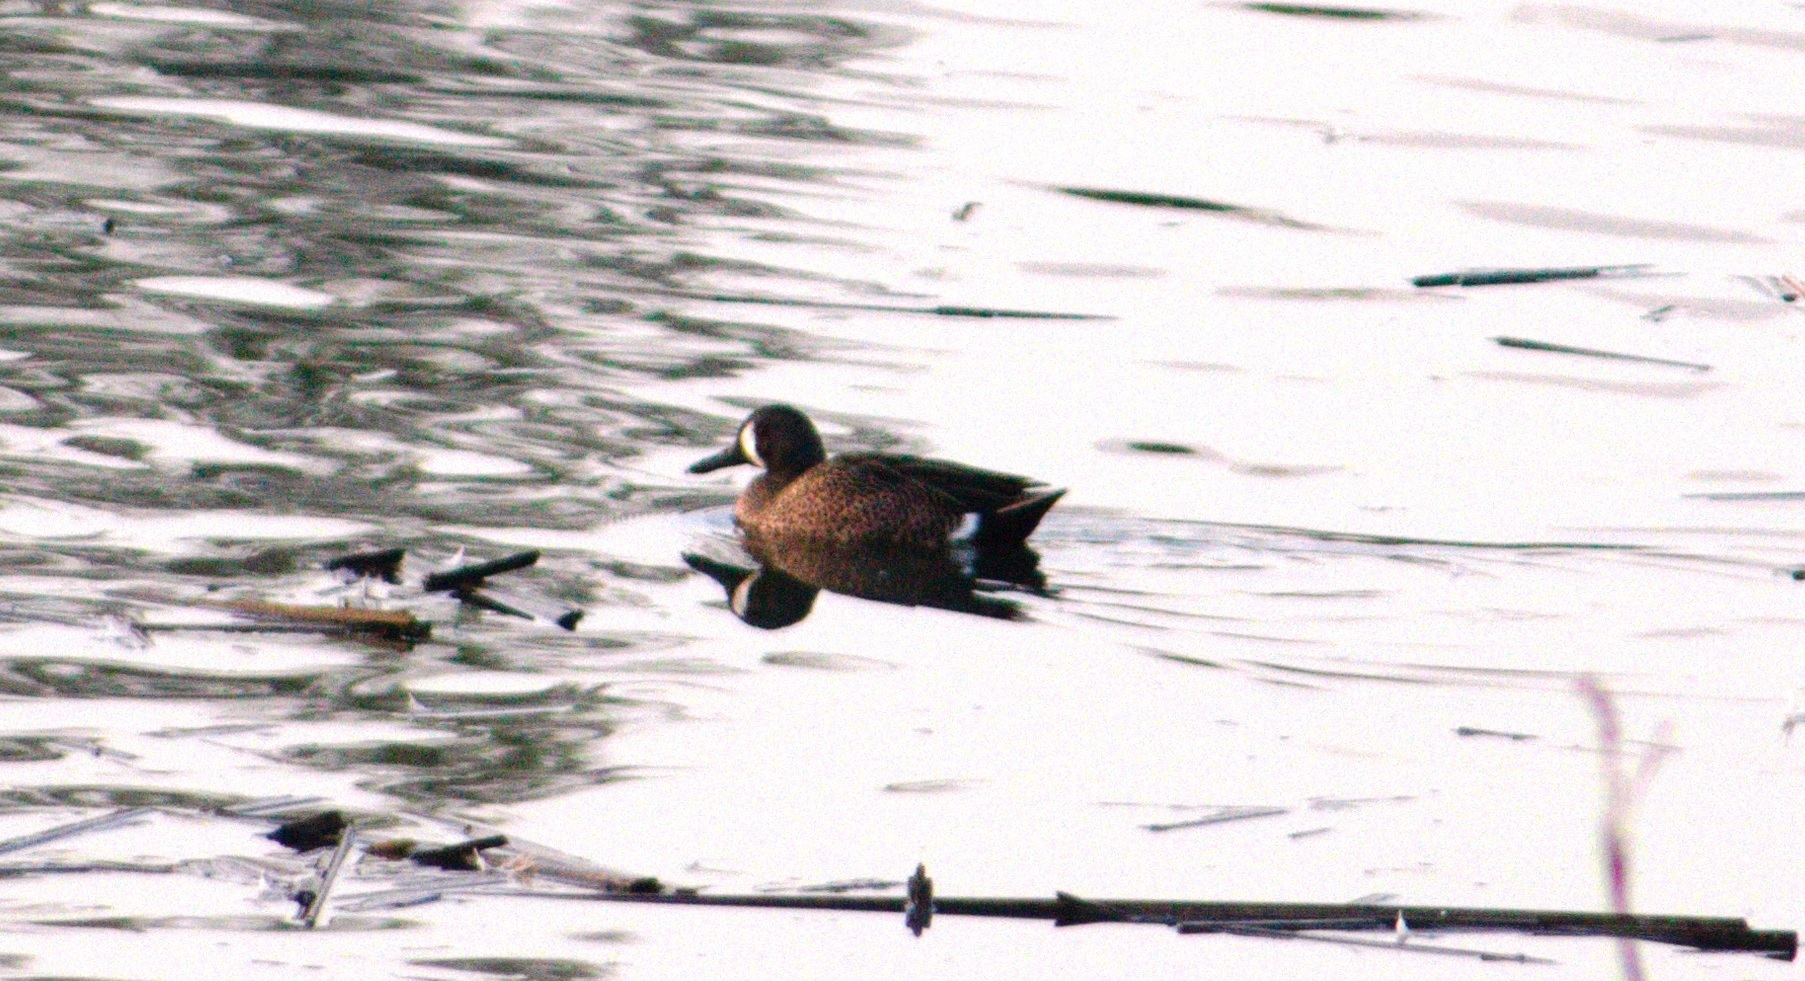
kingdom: Animalia
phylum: Chordata
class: Aves
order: Anseriformes
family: Anatidae
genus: Spatula
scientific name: Spatula discors
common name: Blue-winged teal
